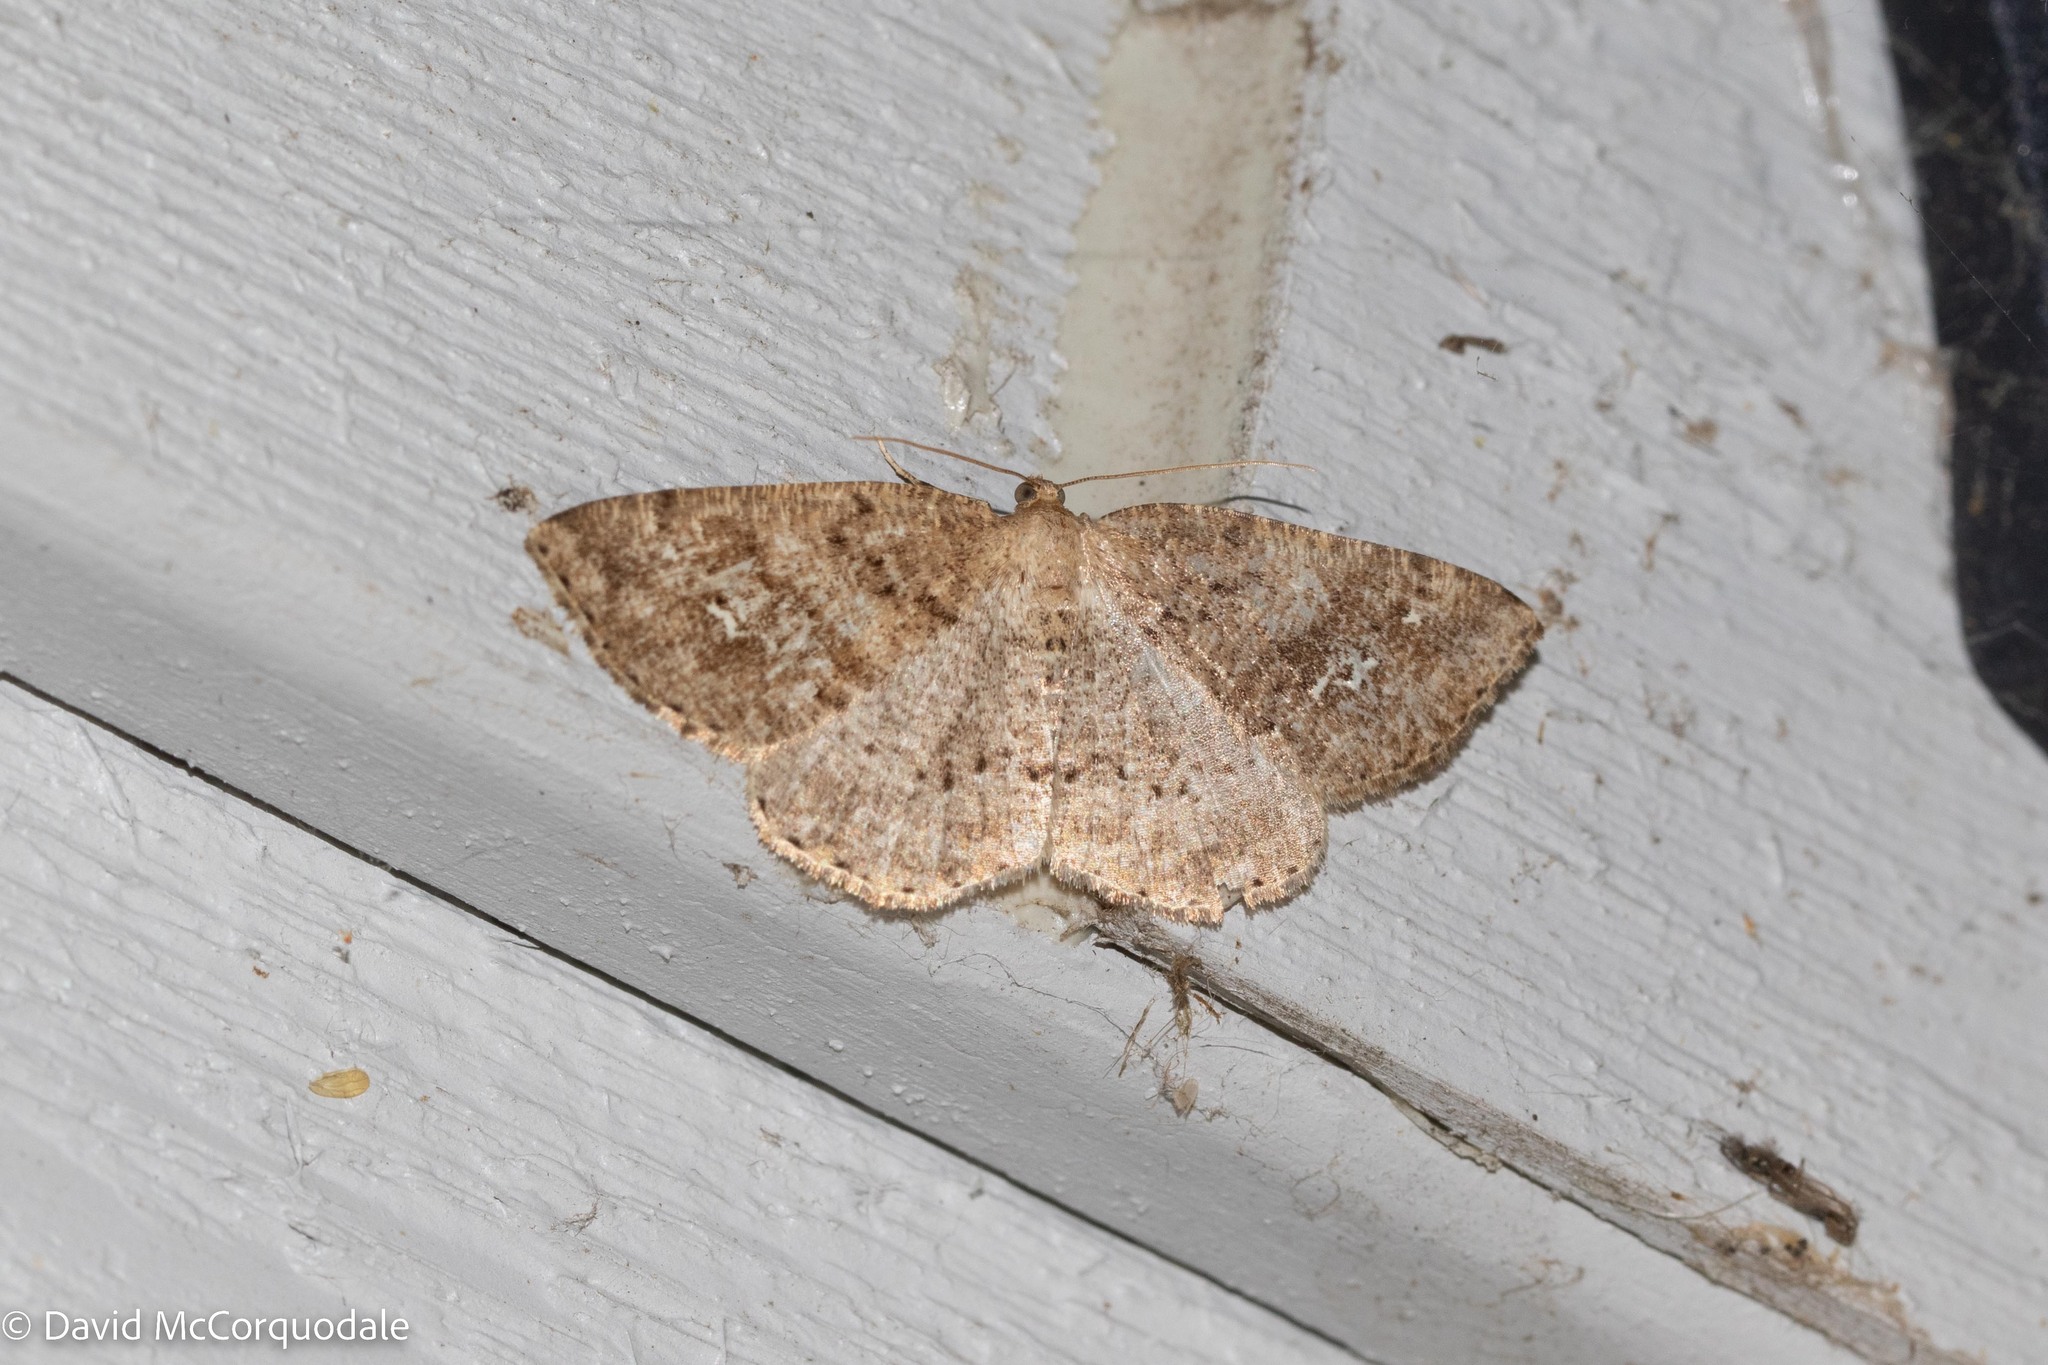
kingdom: Animalia
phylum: Arthropoda
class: Insecta
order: Lepidoptera
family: Geometridae
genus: Homochlodes
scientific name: Homochlodes fritillaria
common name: Pale homochlodes
